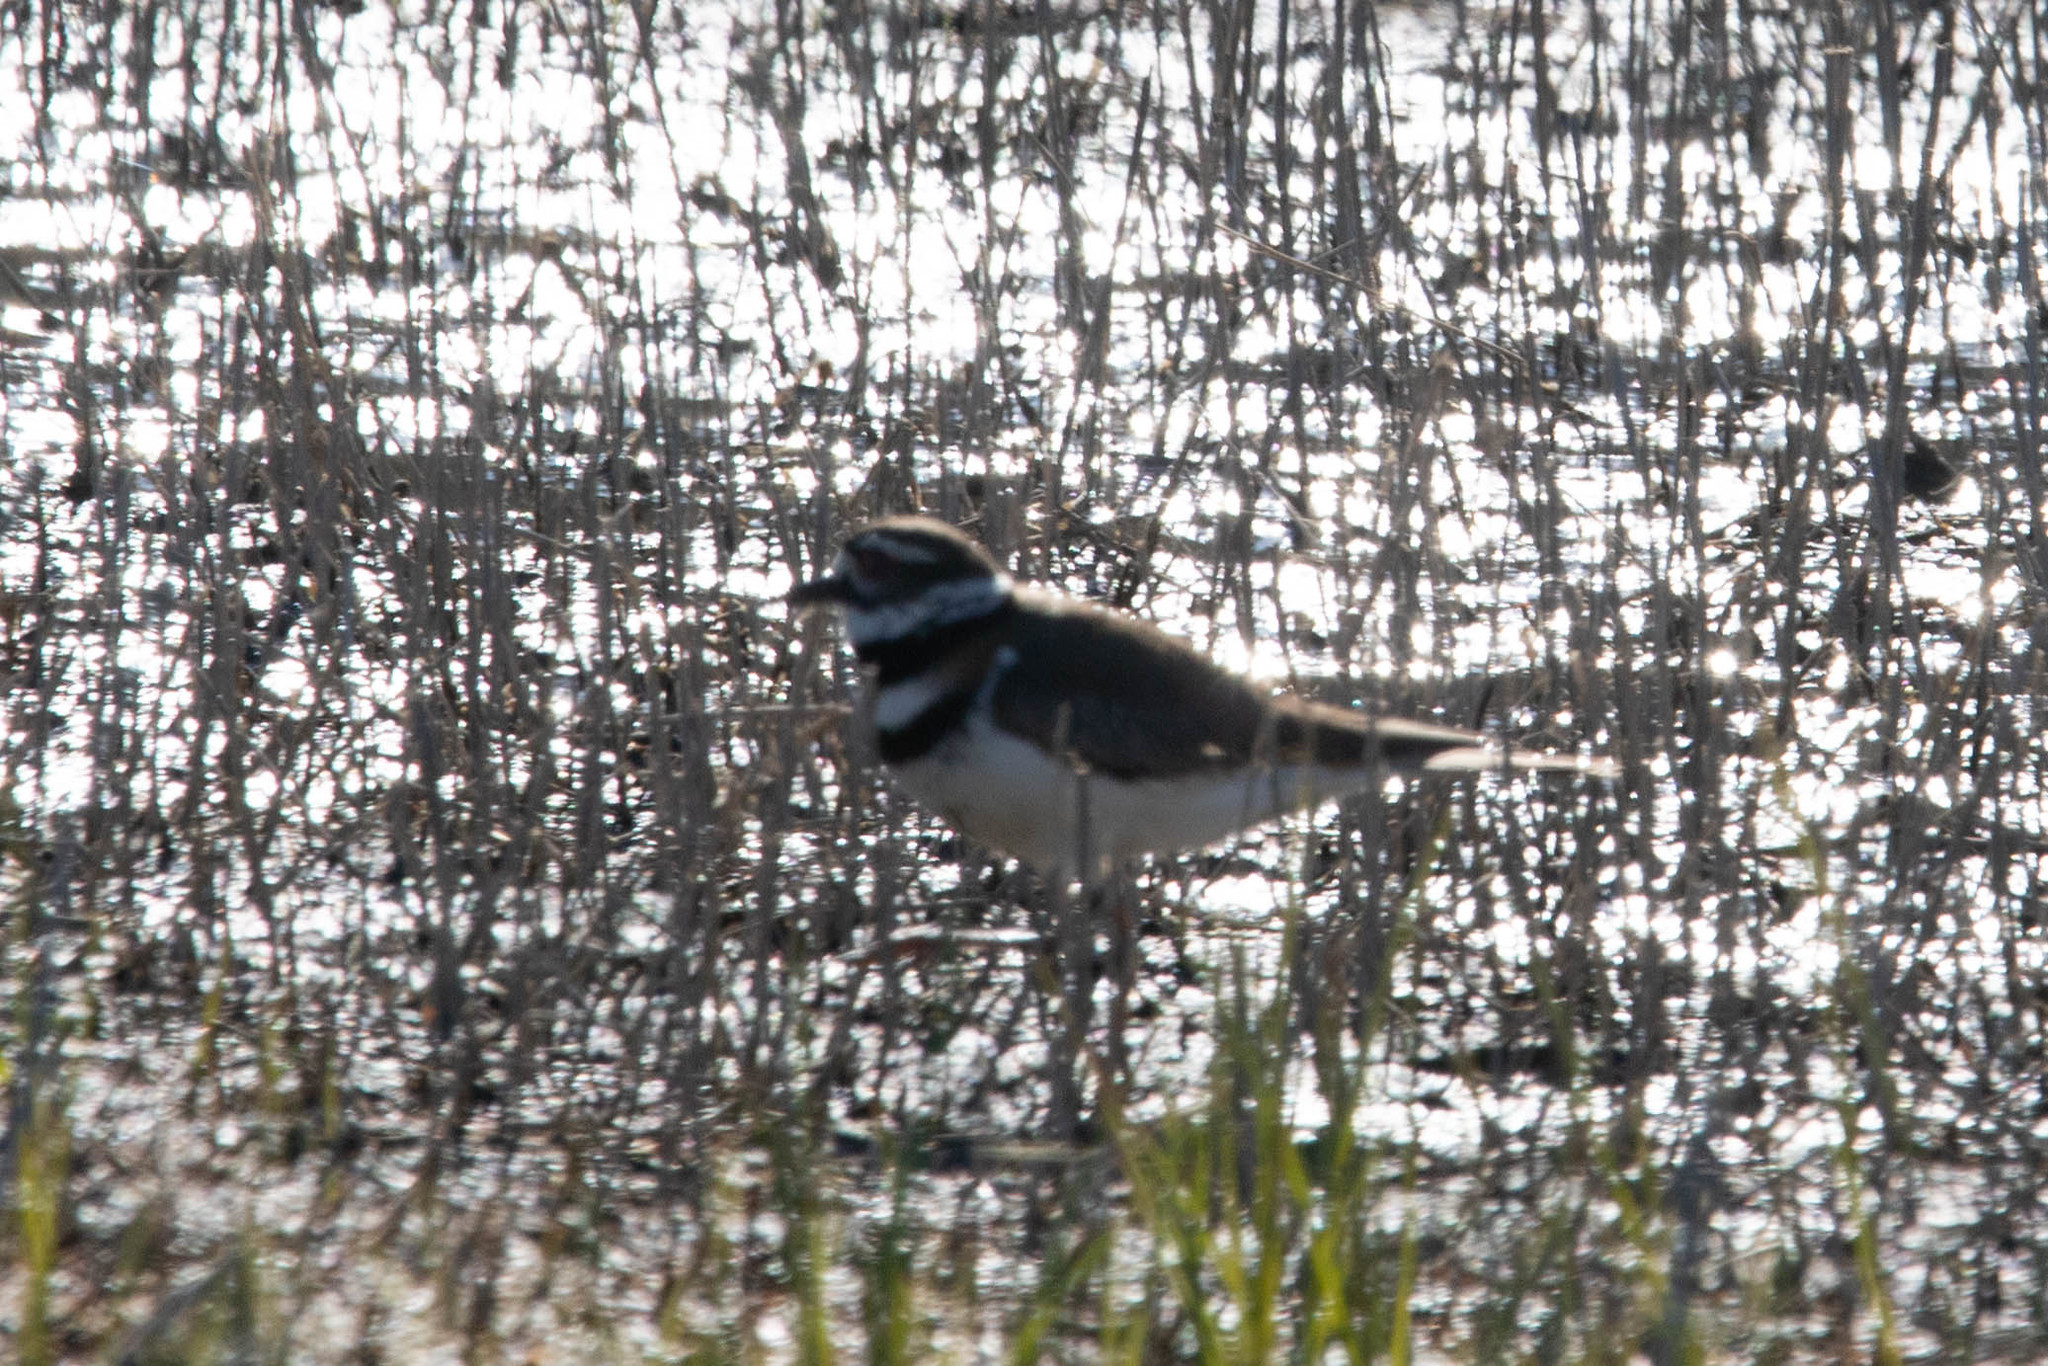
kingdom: Animalia
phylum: Chordata
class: Aves
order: Charadriiformes
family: Charadriidae
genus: Charadrius
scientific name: Charadrius vociferus
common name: Killdeer
